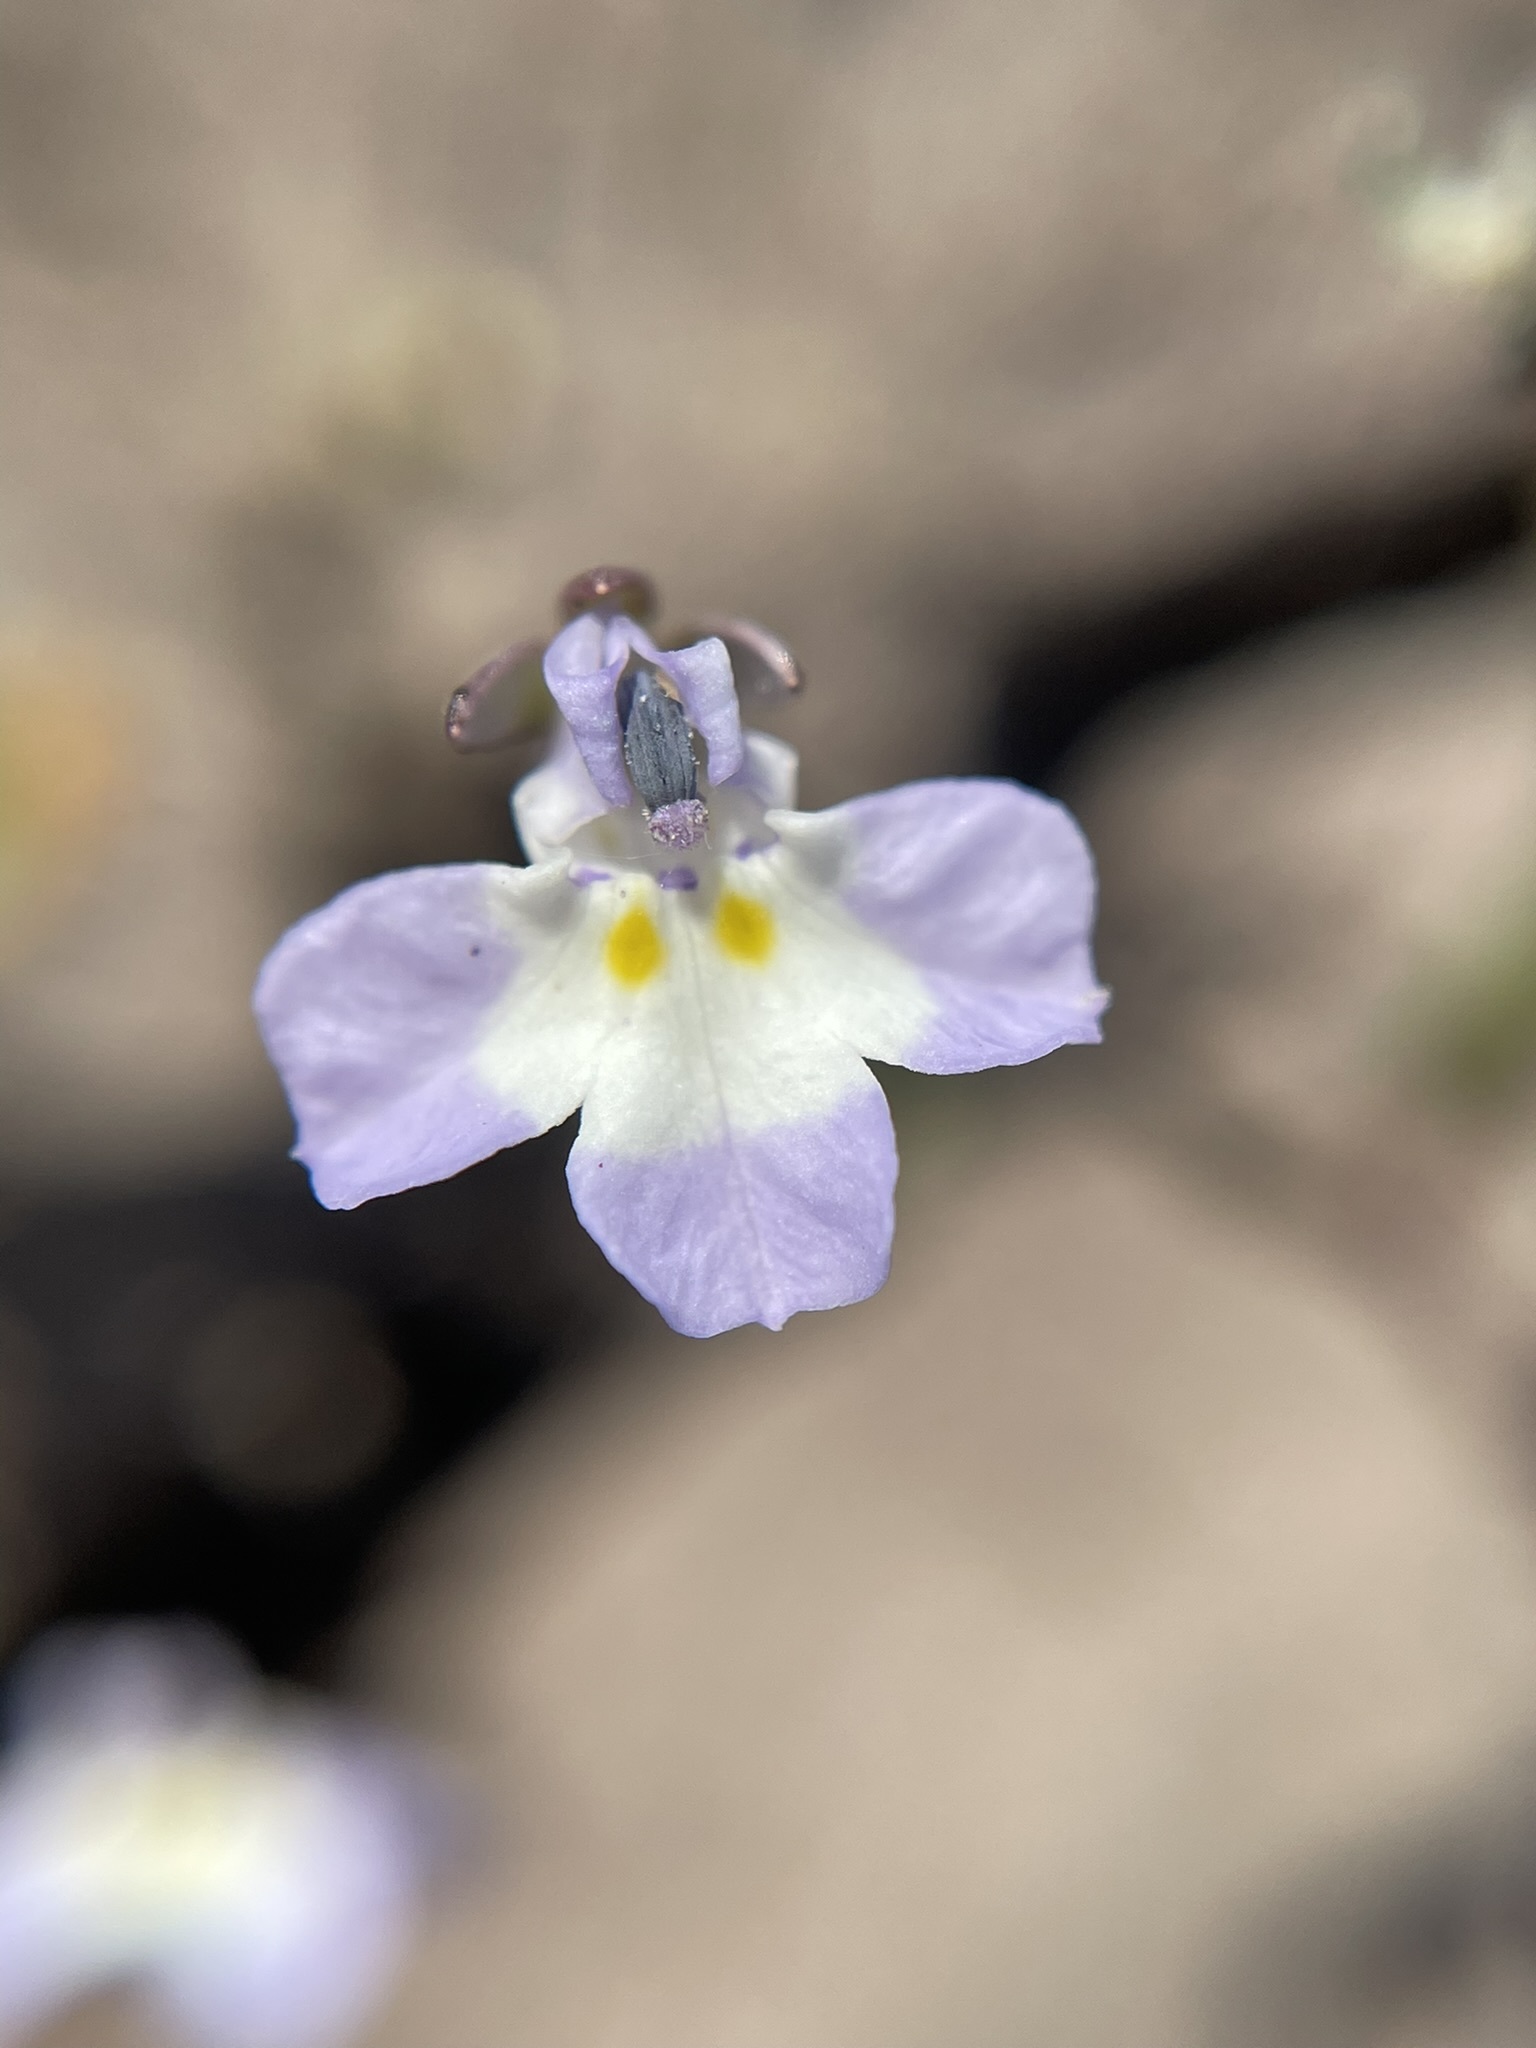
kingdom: Plantae
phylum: Tracheophyta
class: Magnoliopsida
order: Asterales
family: Campanulaceae
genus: Downingia
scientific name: Downingia ornatissima
